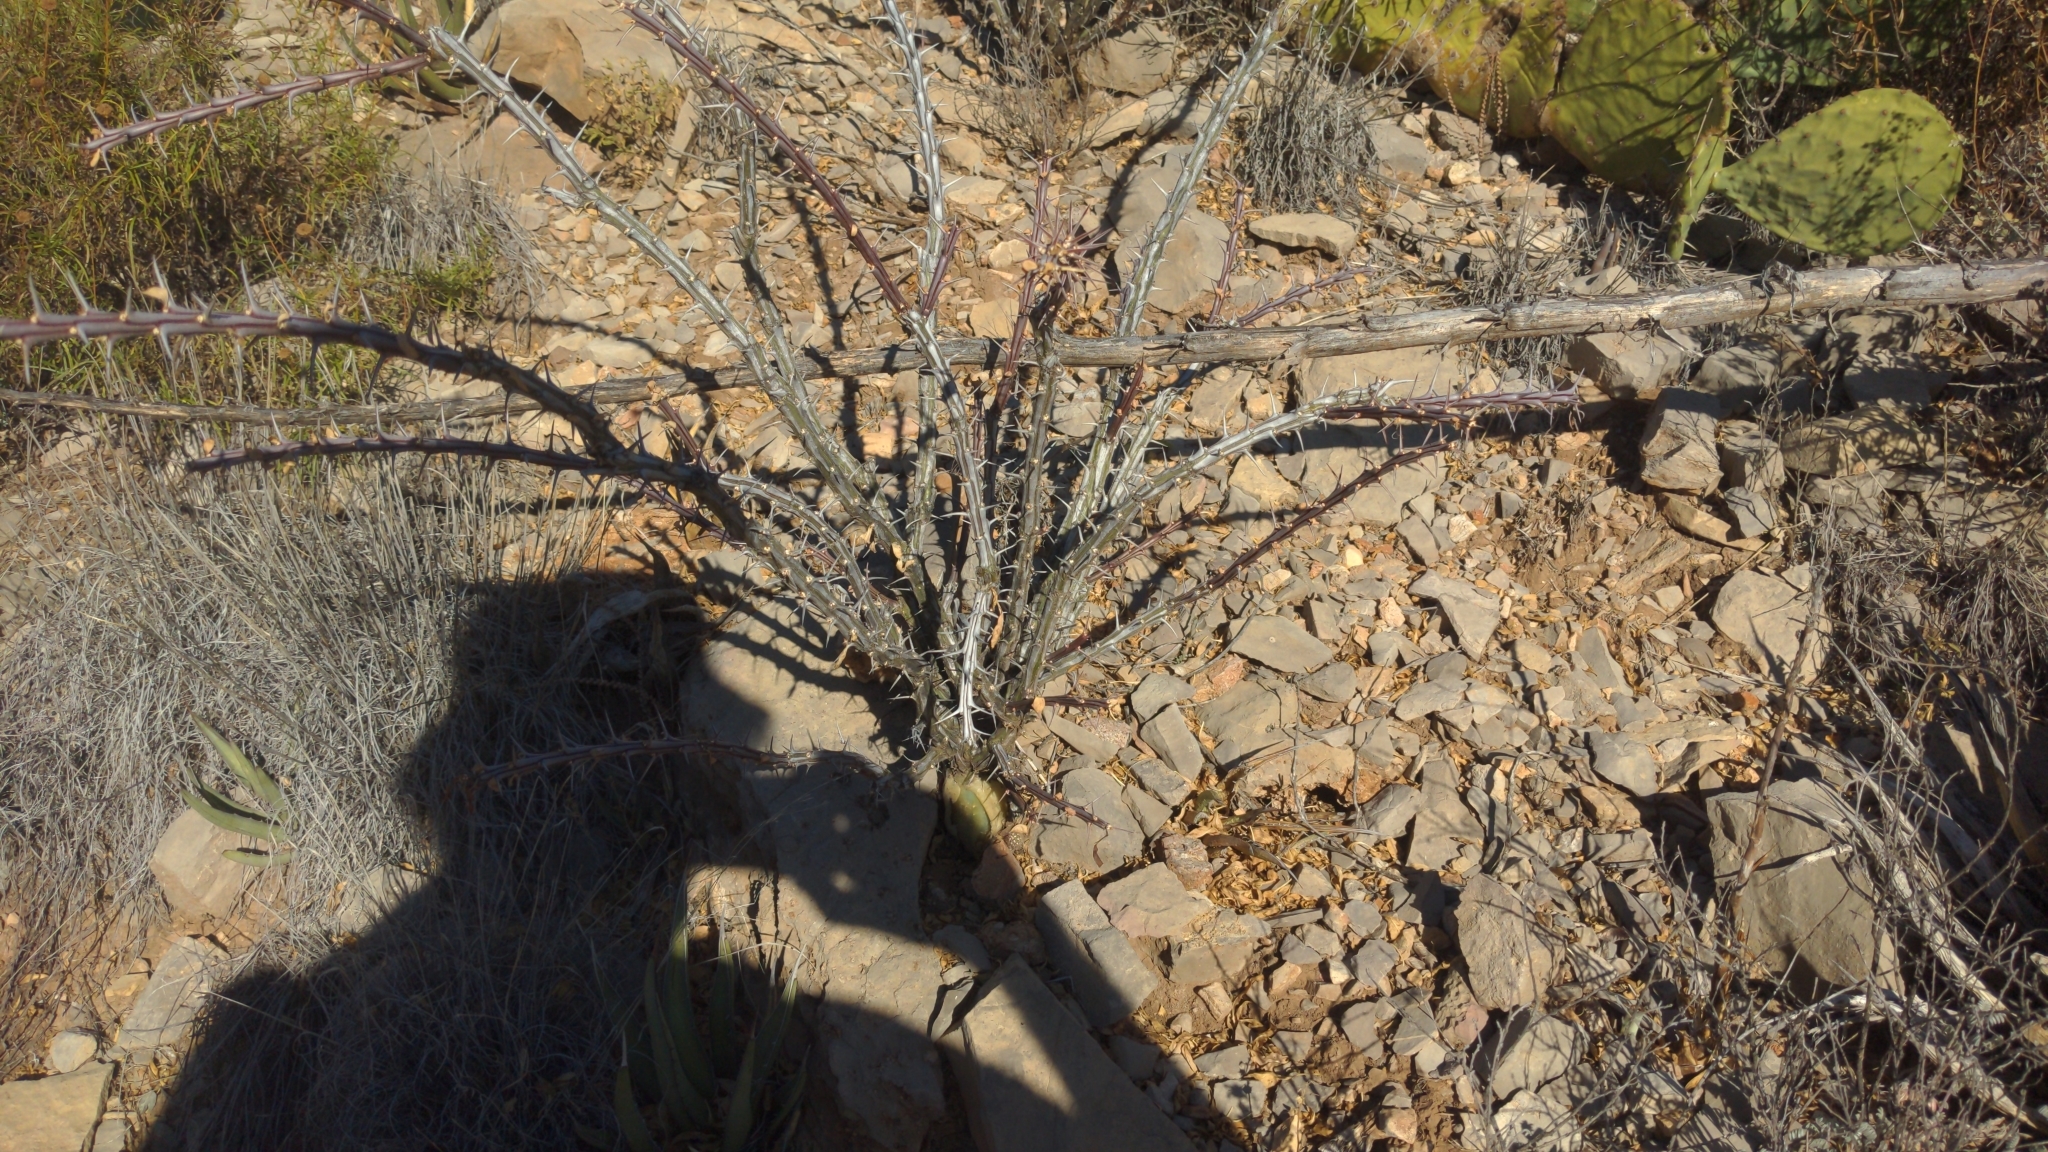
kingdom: Plantae
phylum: Tracheophyta
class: Magnoliopsida
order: Ericales
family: Fouquieriaceae
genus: Fouquieria
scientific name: Fouquieria splendens
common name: Vine-cactus
